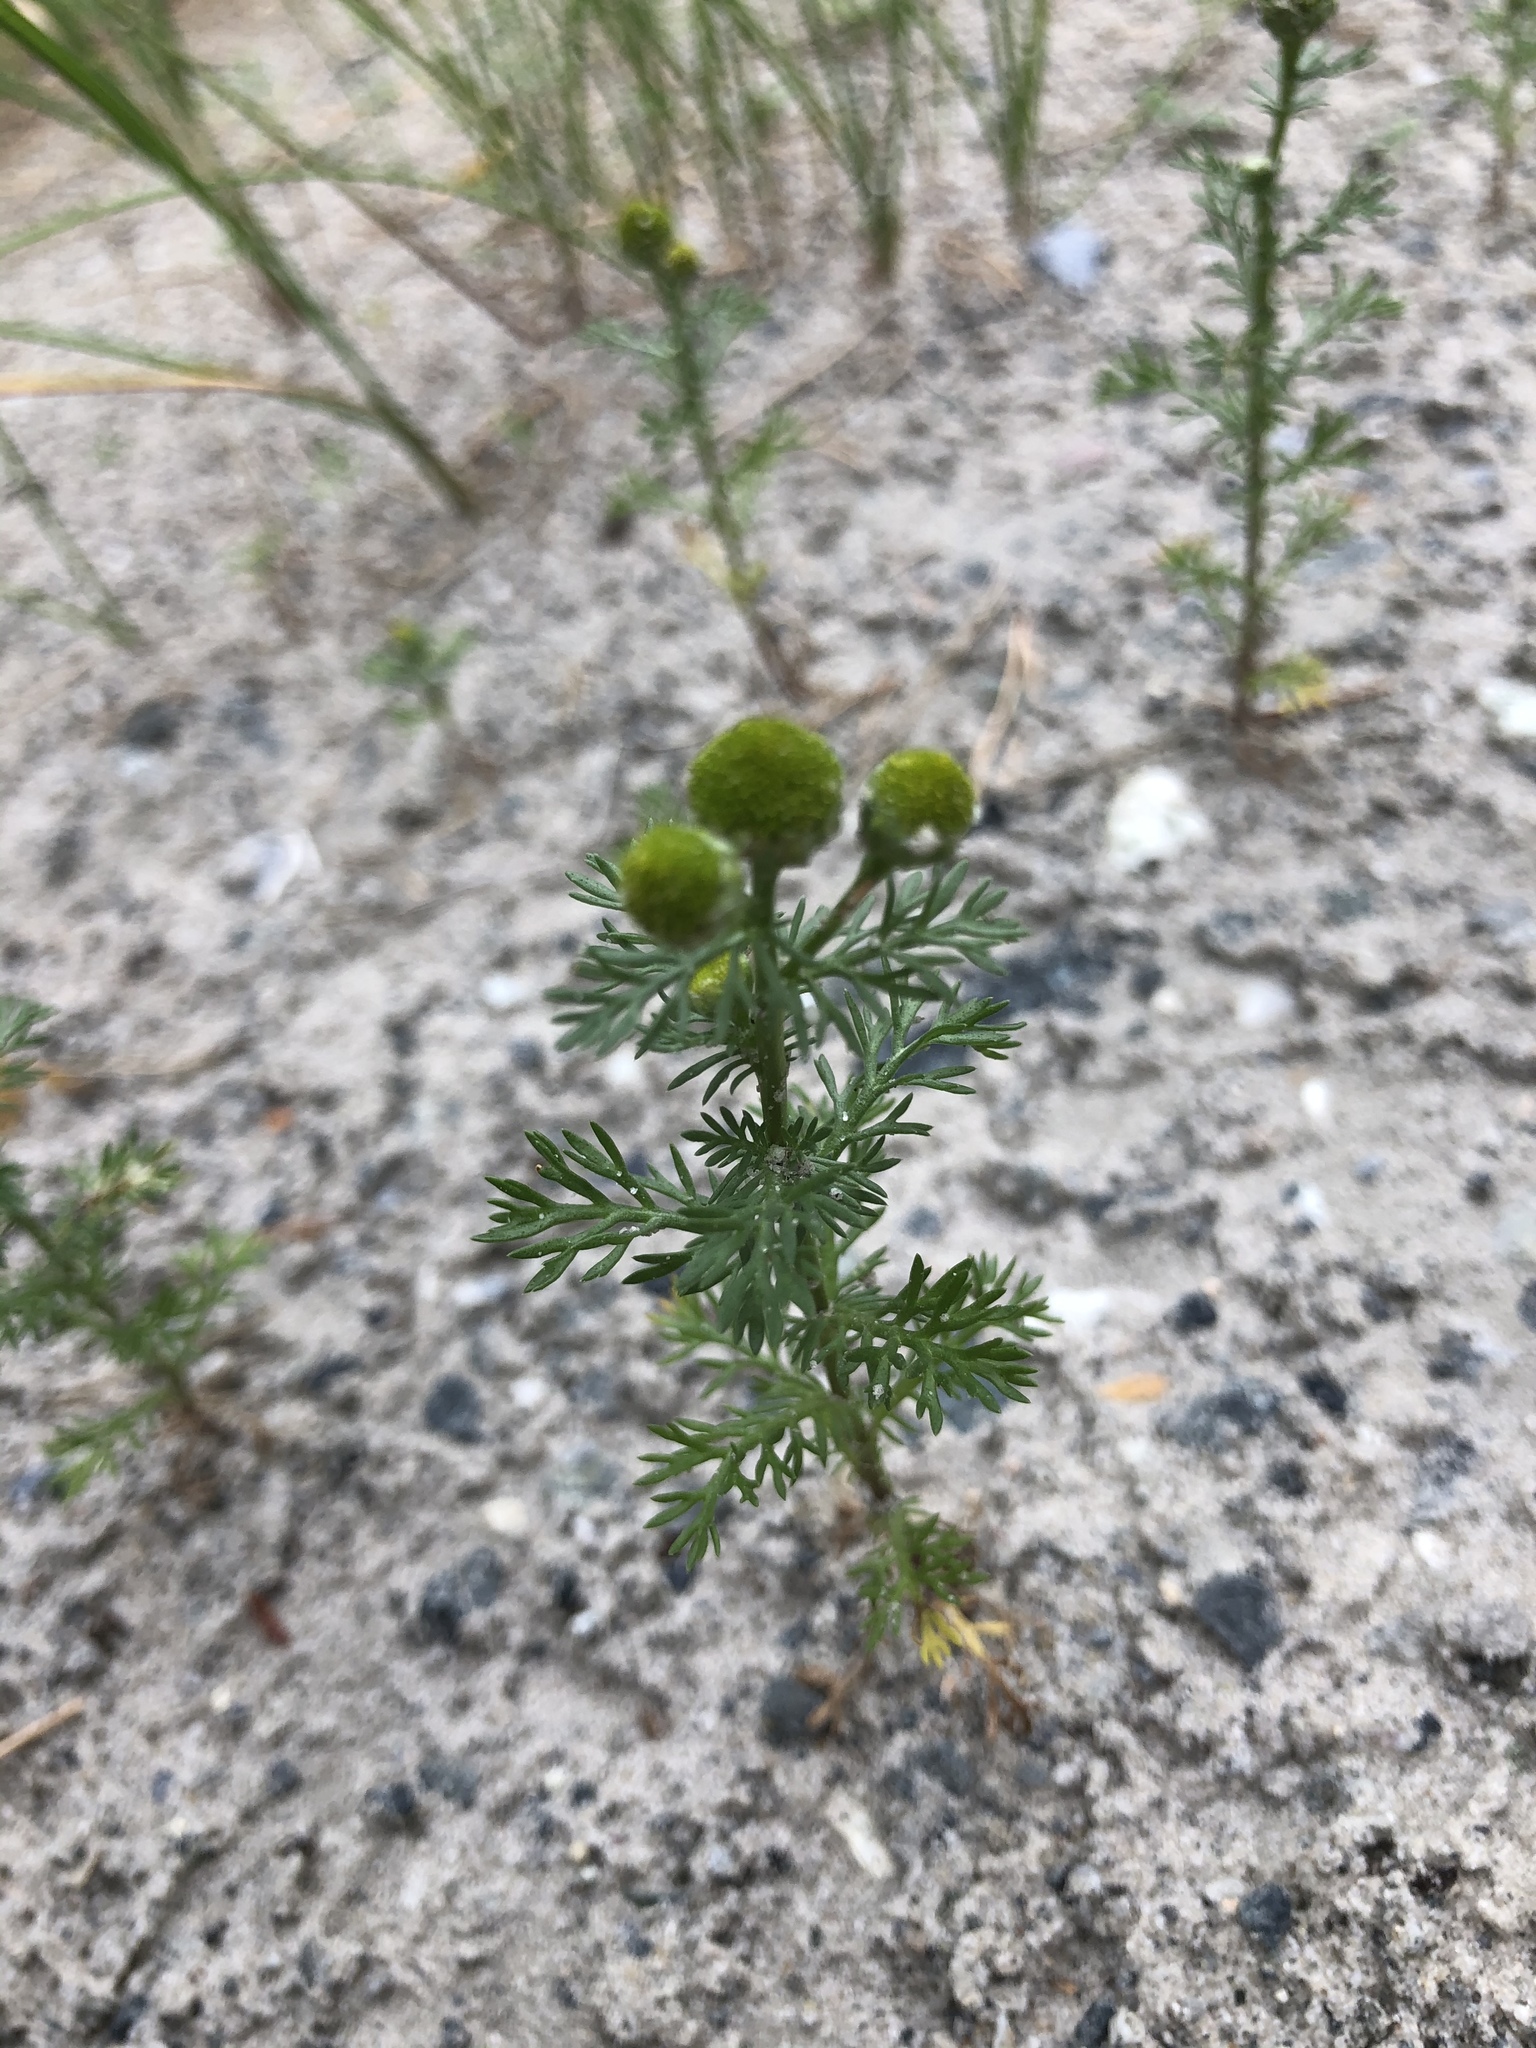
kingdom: Plantae
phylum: Tracheophyta
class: Magnoliopsida
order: Asterales
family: Asteraceae
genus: Matricaria
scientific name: Matricaria discoidea
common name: Disc mayweed
